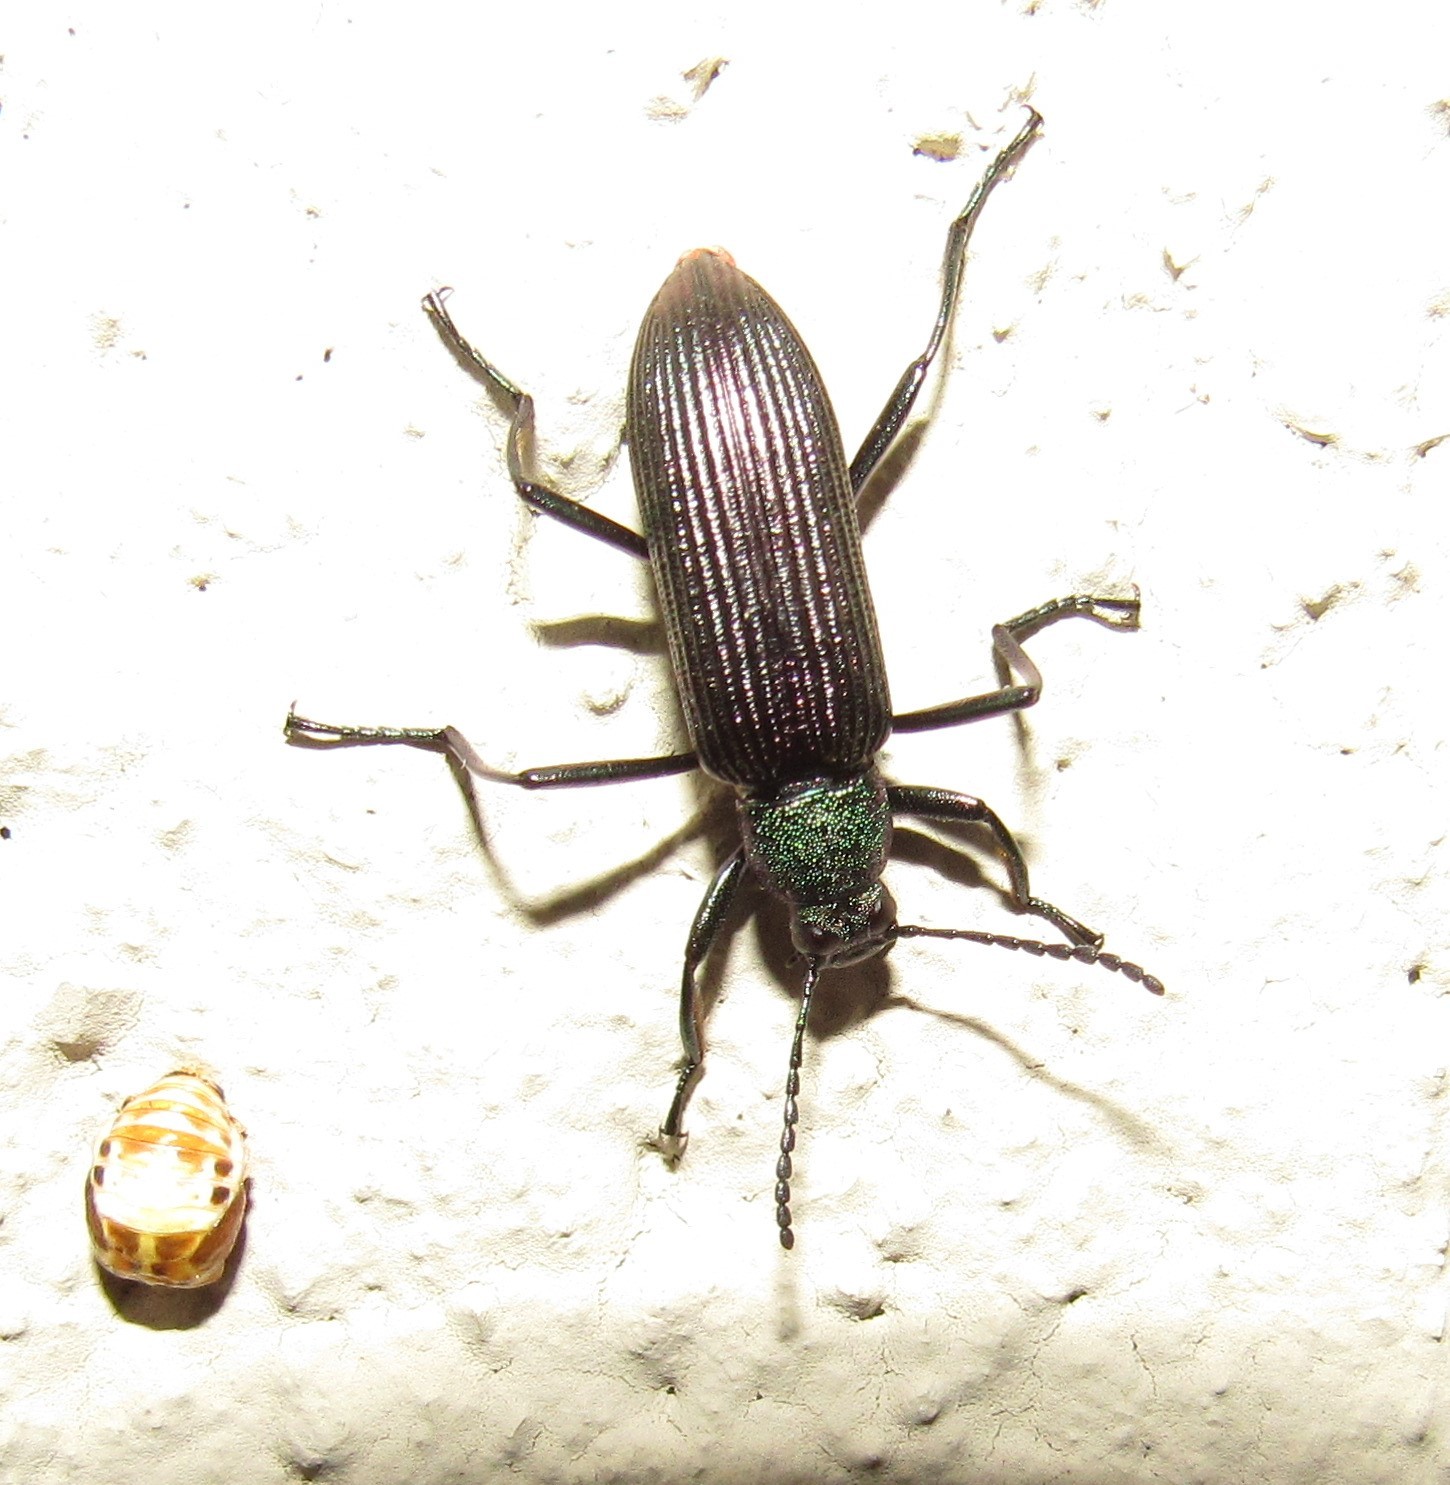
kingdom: Animalia
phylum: Arthropoda
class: Insecta
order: Coleoptera
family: Tenebrionidae
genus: Strongylium
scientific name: Strongylium
